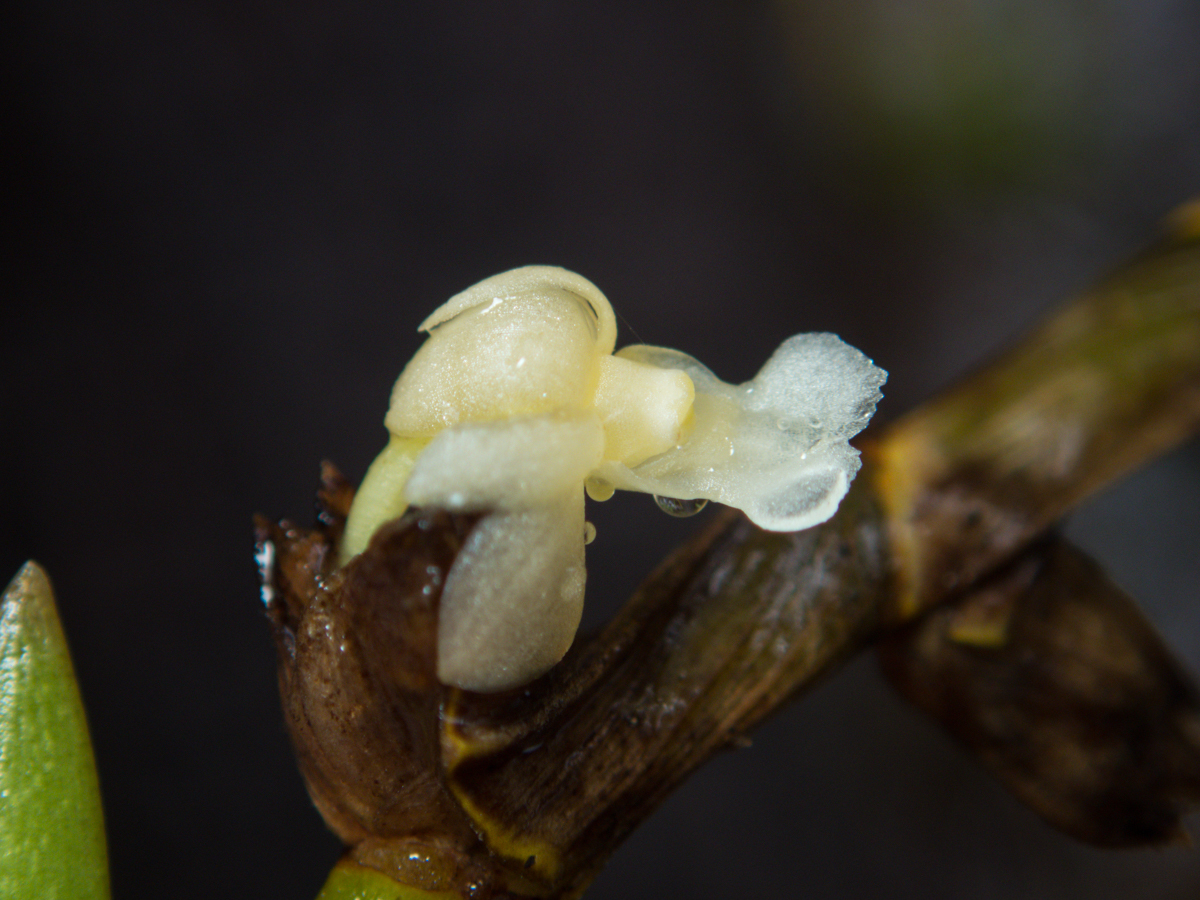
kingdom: Plantae
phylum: Tracheophyta
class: Liliopsida
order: Asparagales
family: Orchidaceae
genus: Dendrobium
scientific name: Dendrobium aloifolium
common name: Aloe-like dendrobium
